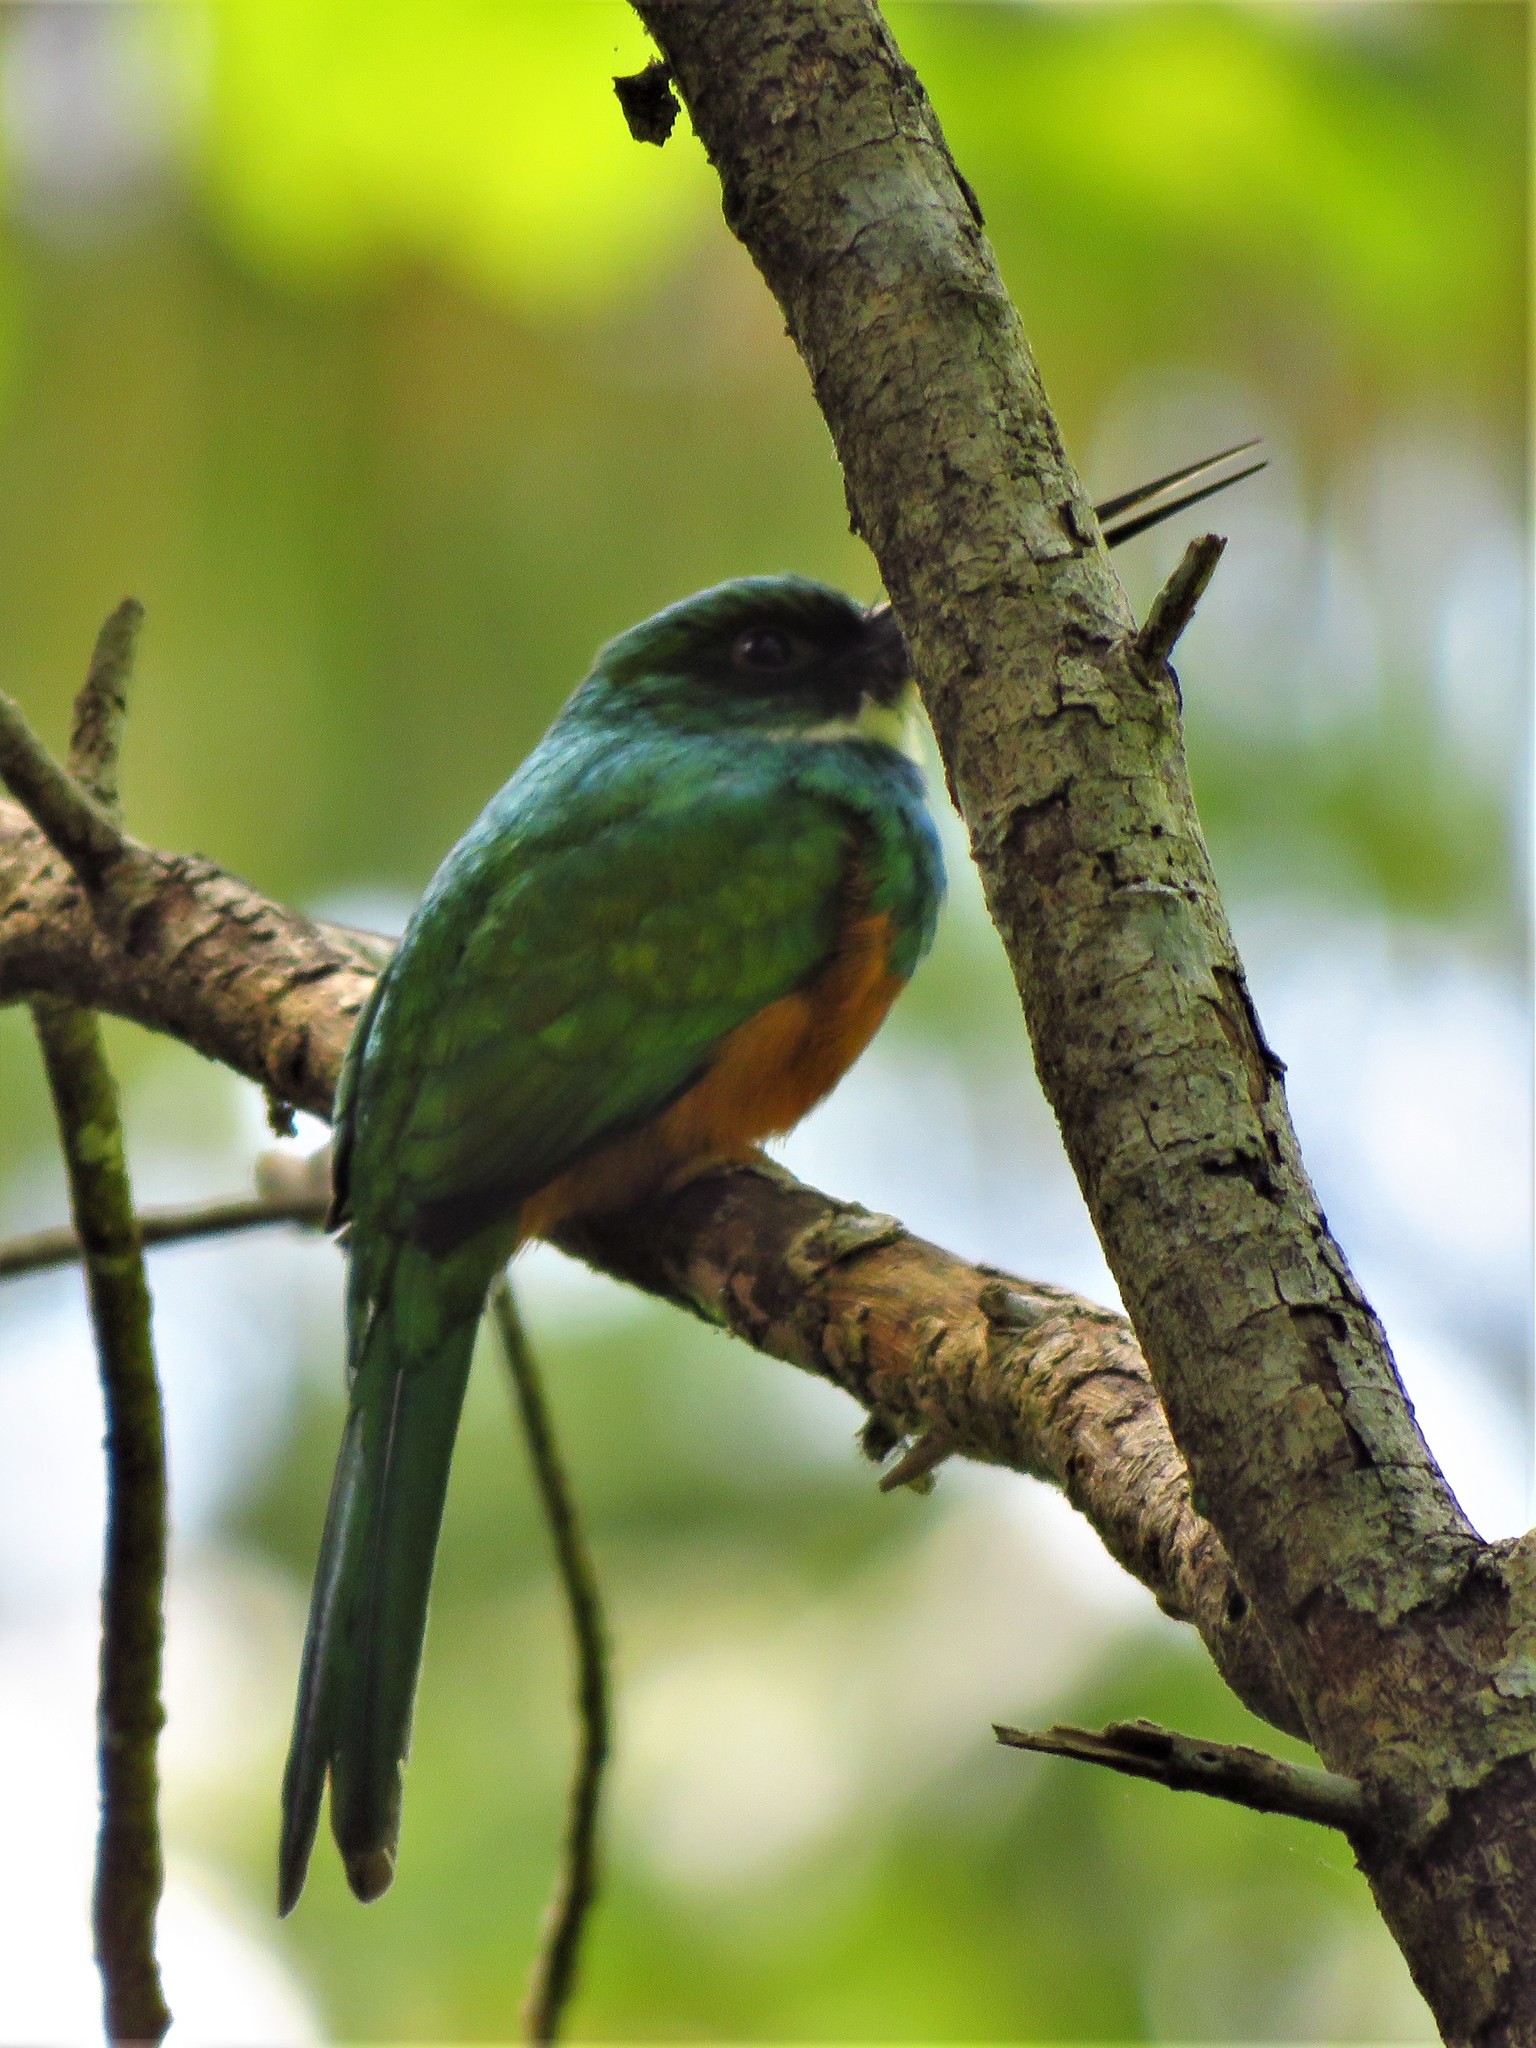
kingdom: Animalia
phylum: Chordata
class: Aves
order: Piciformes
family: Galbulidae
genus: Galbula
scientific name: Galbula ruficauda
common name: Rufous-tailed jacamar
